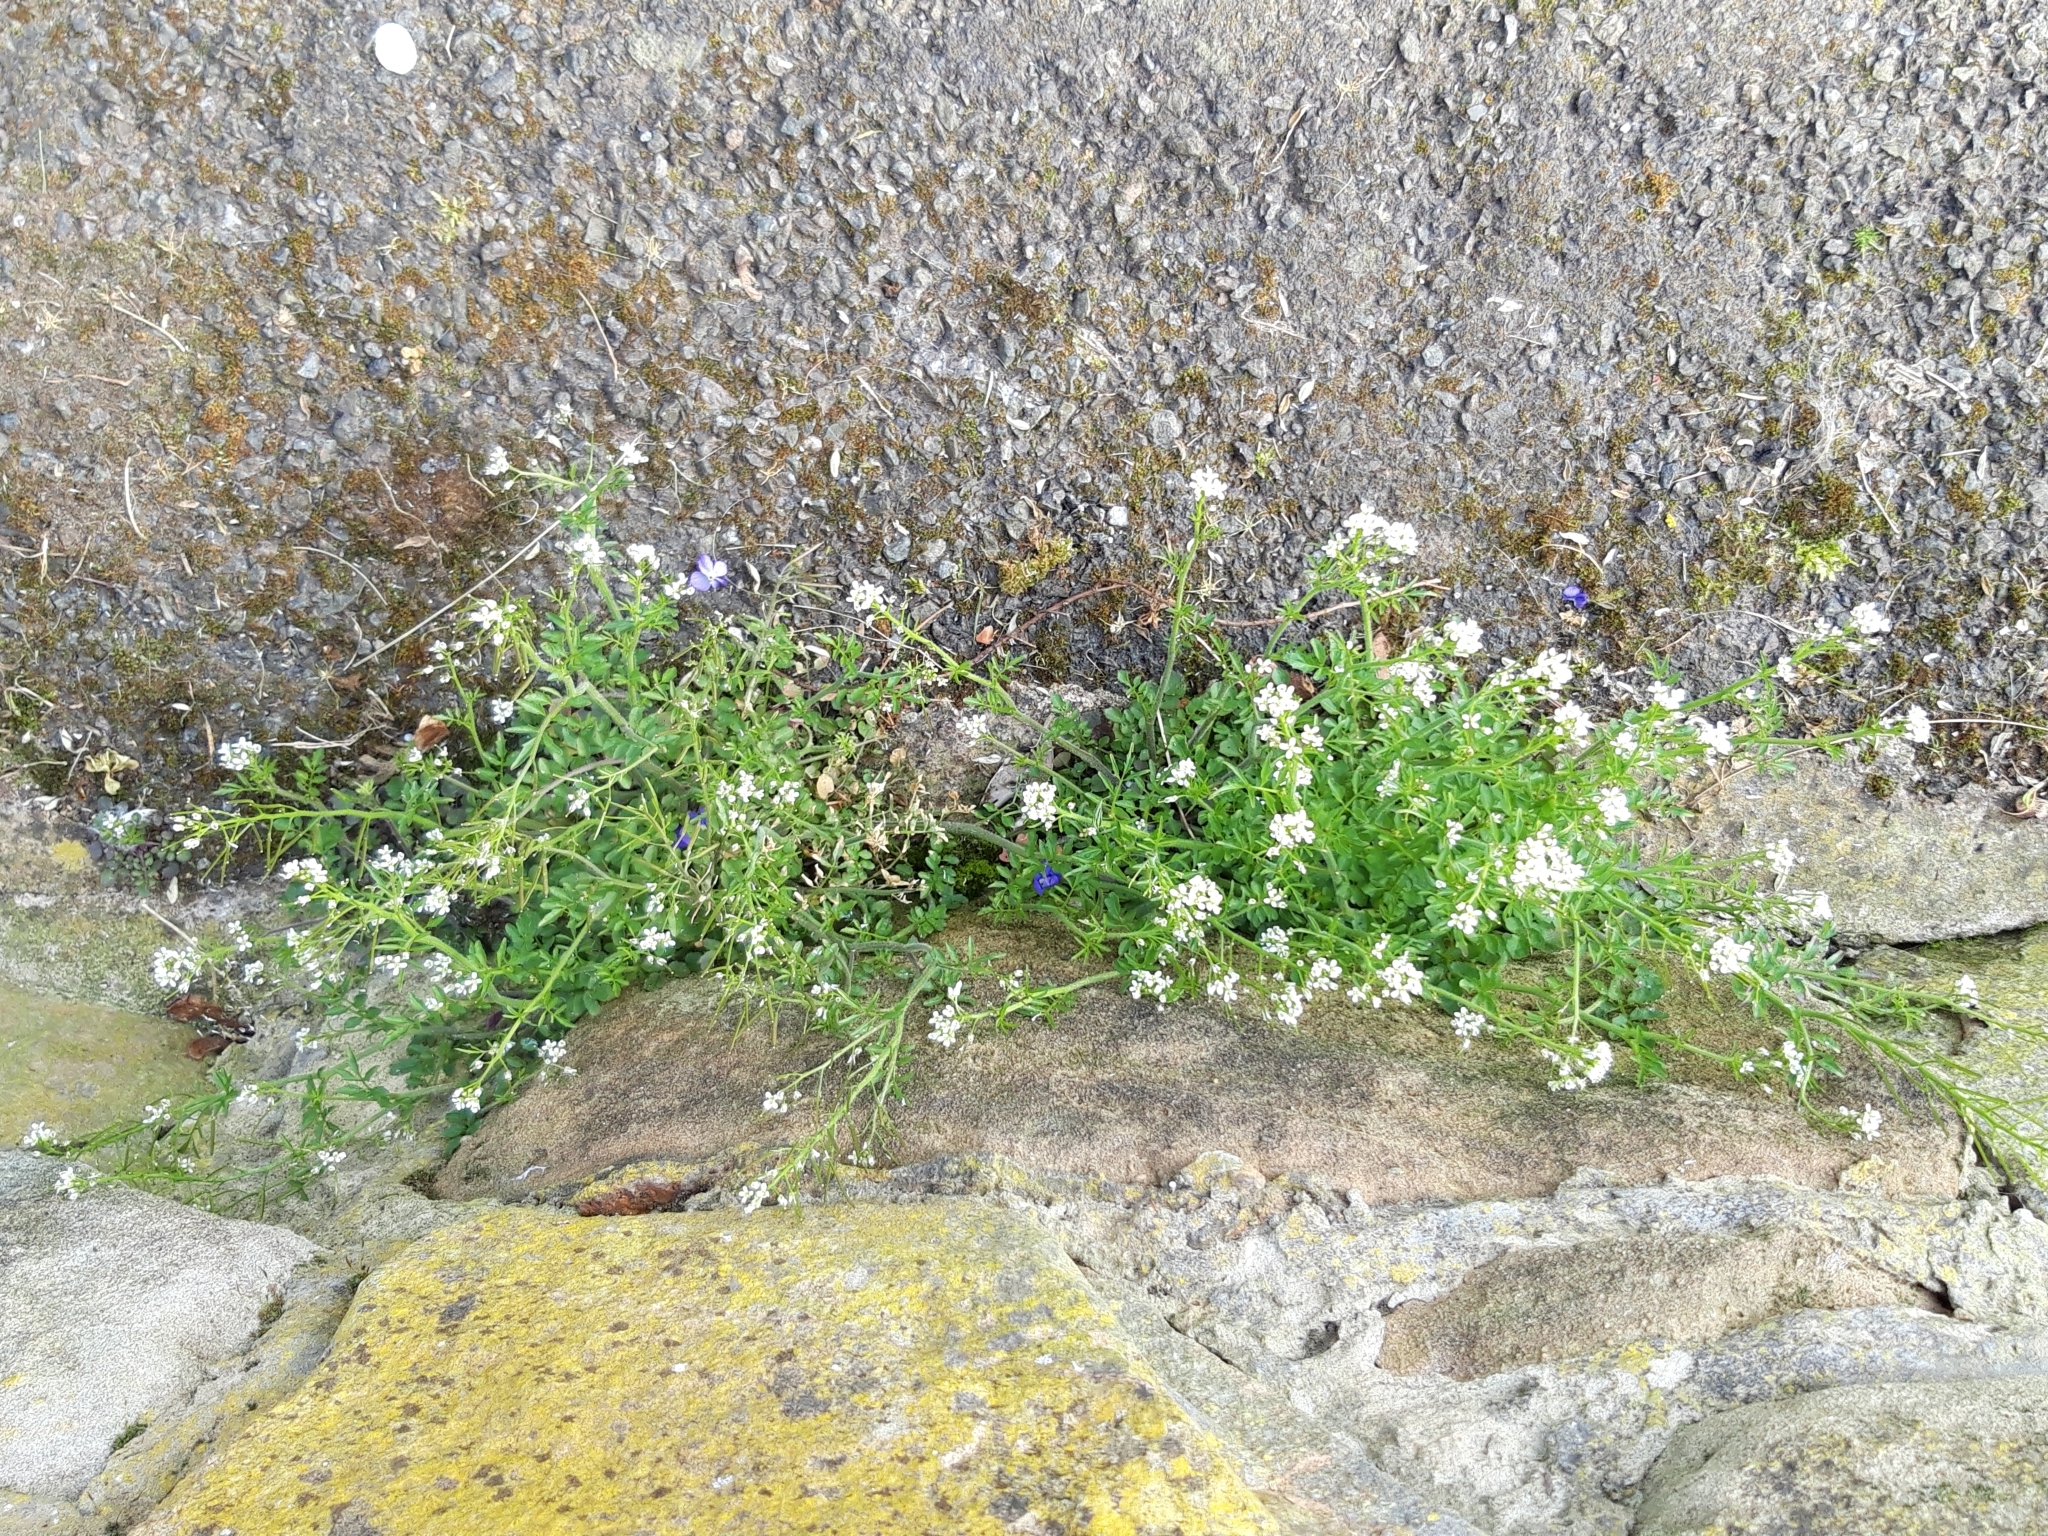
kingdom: Plantae
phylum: Tracheophyta
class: Magnoliopsida
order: Brassicales
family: Brassicaceae
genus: Capsella
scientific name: Capsella bursa-pastoris
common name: Shepherd's purse
